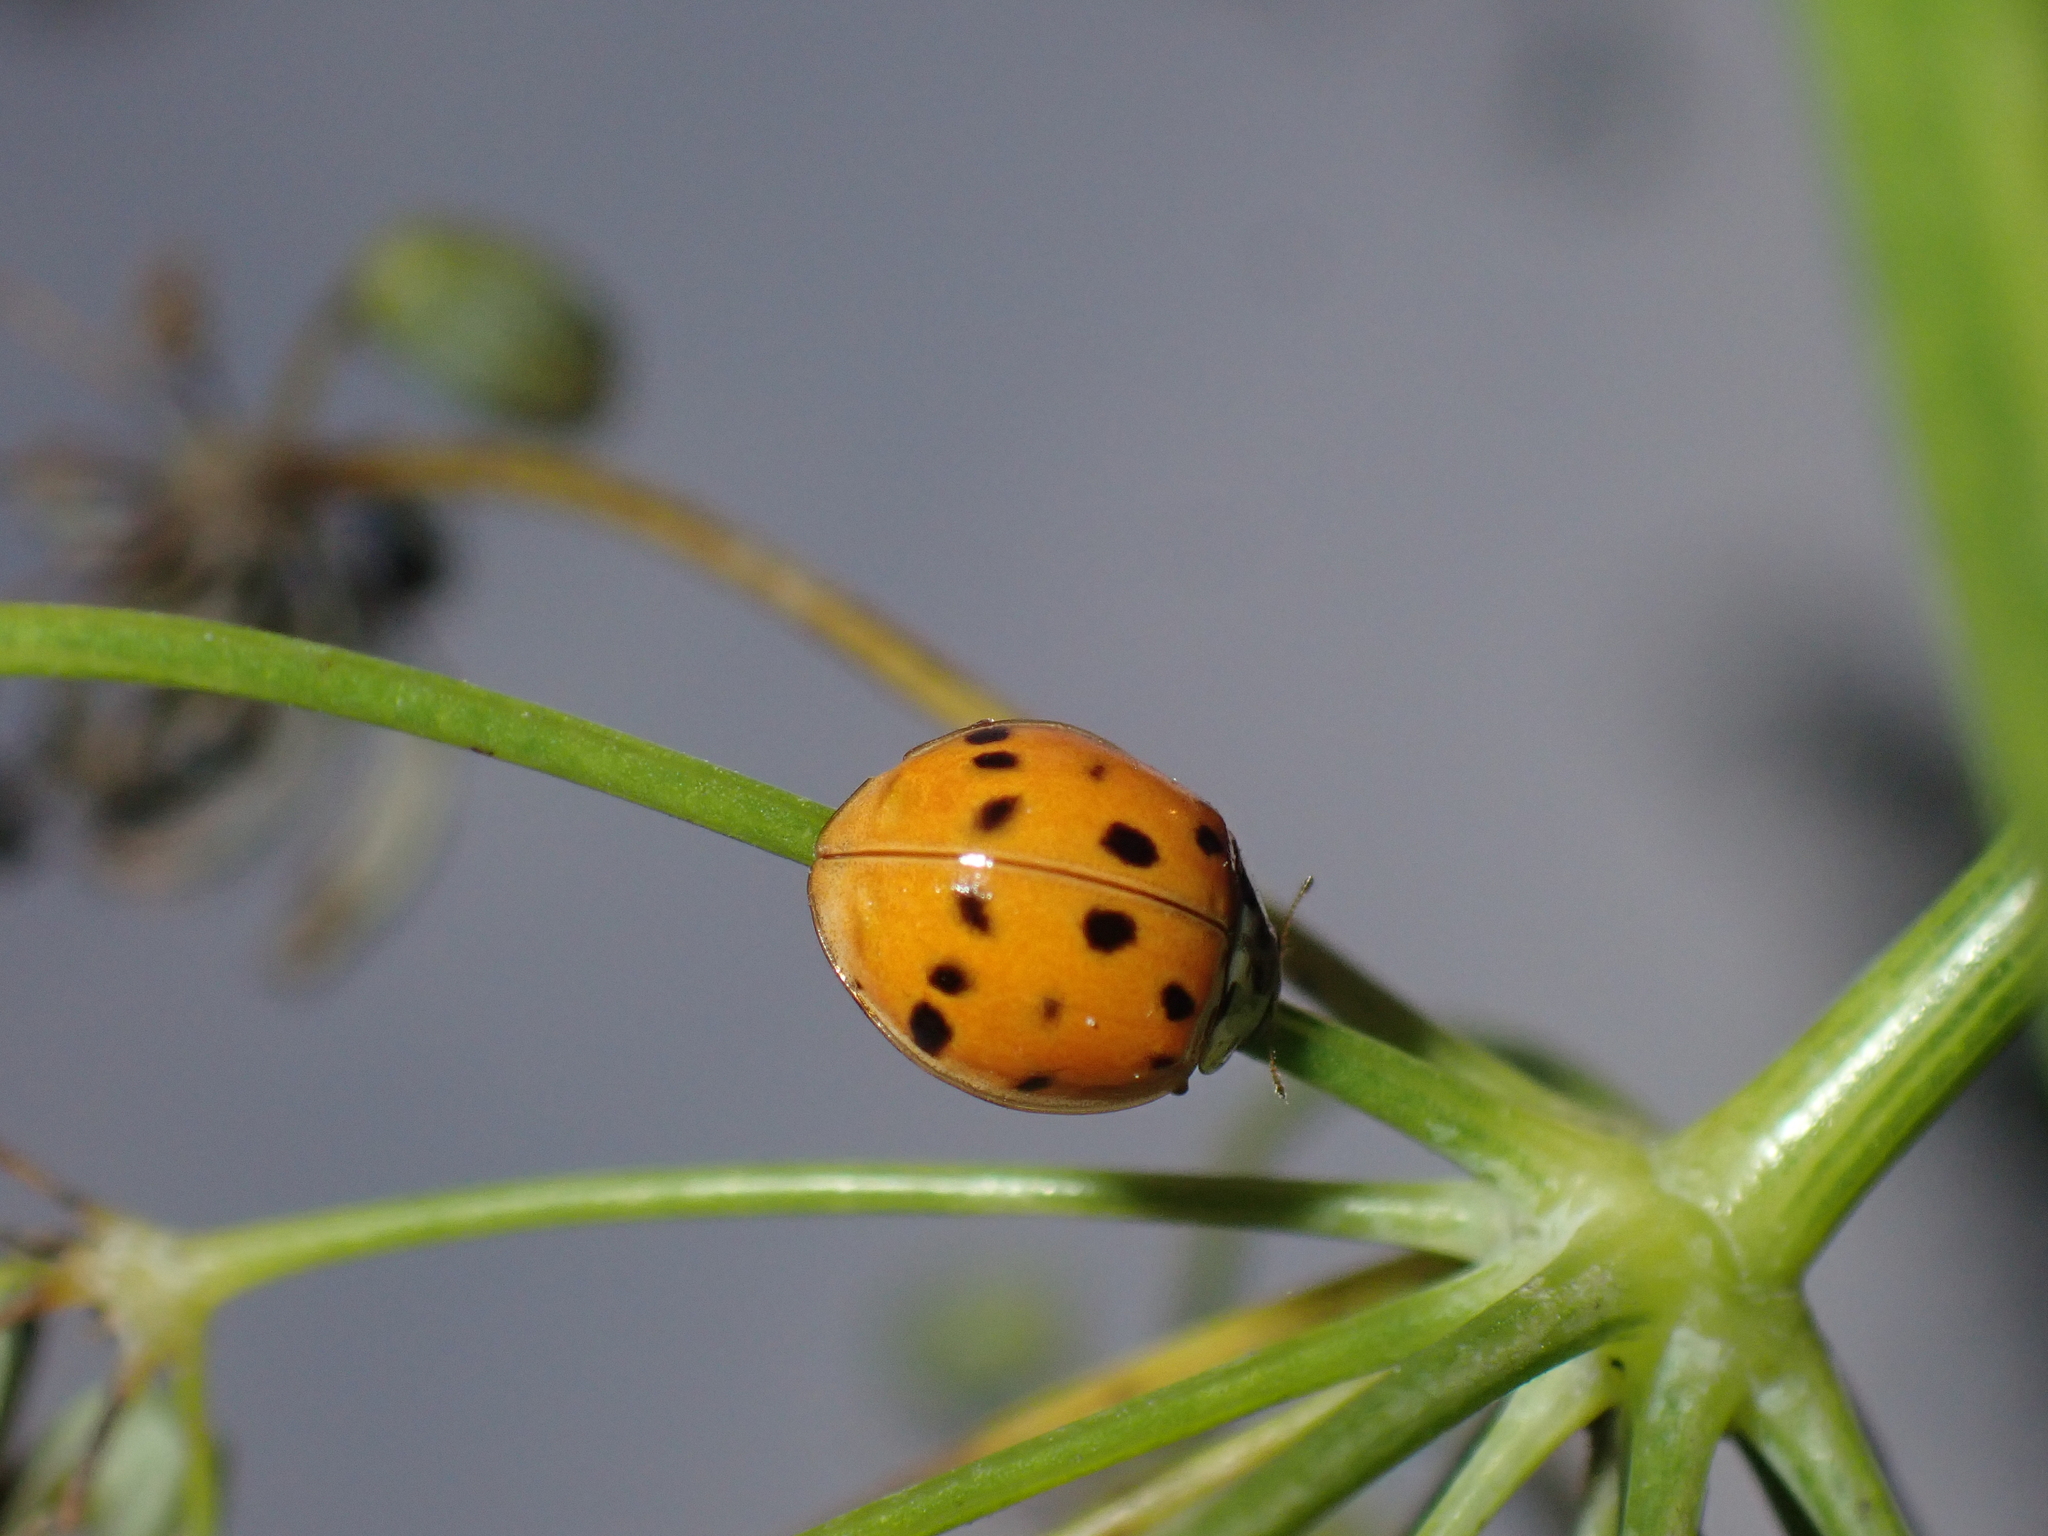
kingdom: Animalia
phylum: Arthropoda
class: Insecta
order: Coleoptera
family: Coccinellidae
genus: Harmonia
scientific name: Harmonia axyridis
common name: Harlequin ladybird
